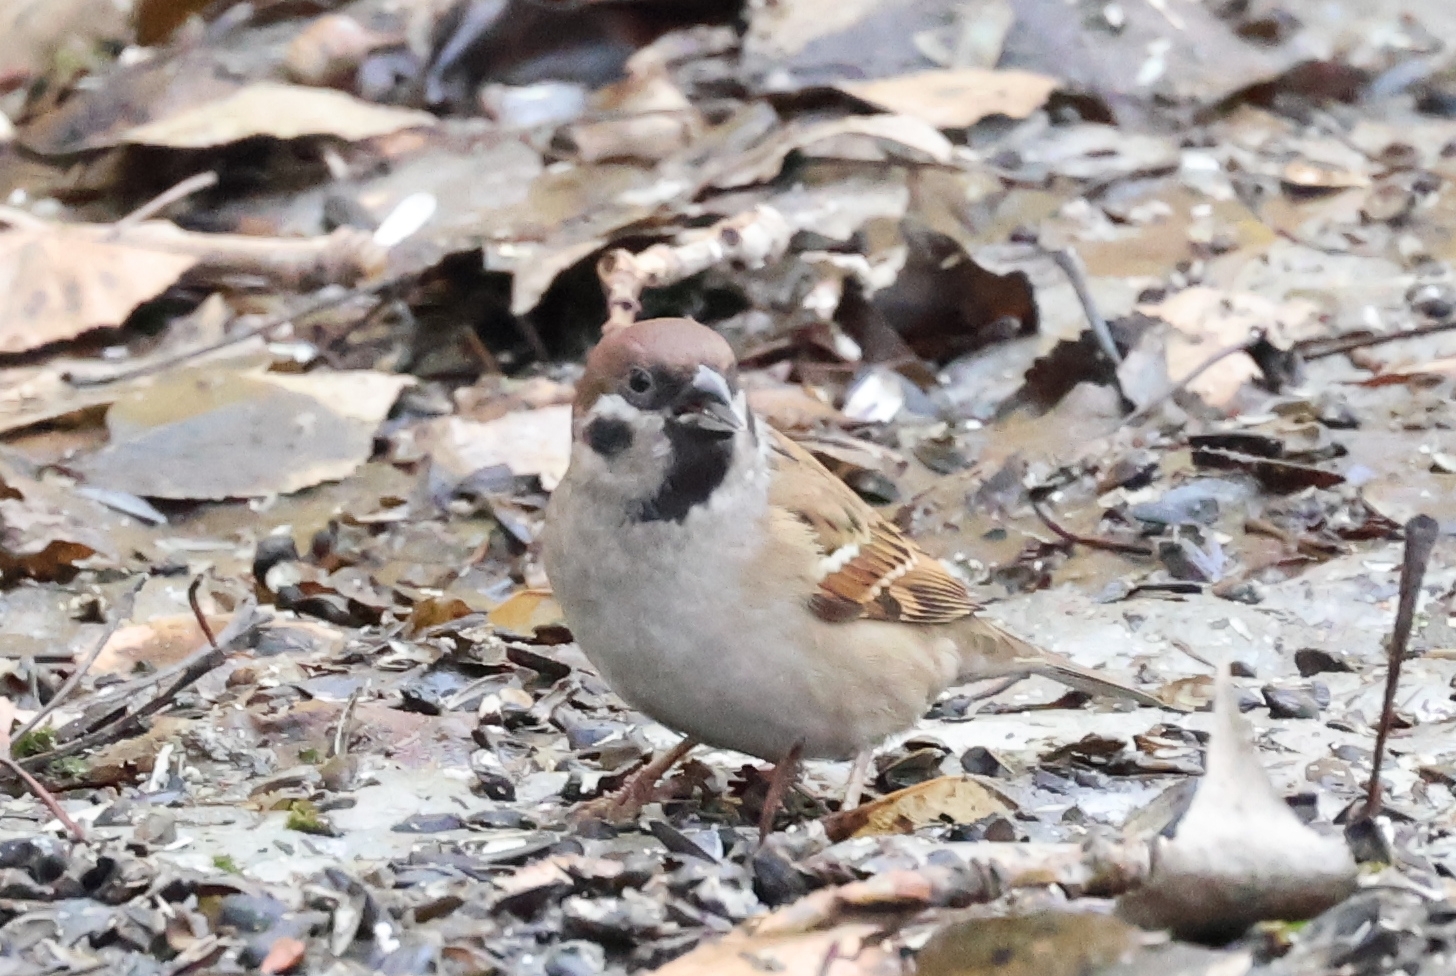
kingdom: Animalia
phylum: Chordata
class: Aves
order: Passeriformes
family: Passeridae
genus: Passer
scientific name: Passer montanus
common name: Eurasian tree sparrow
